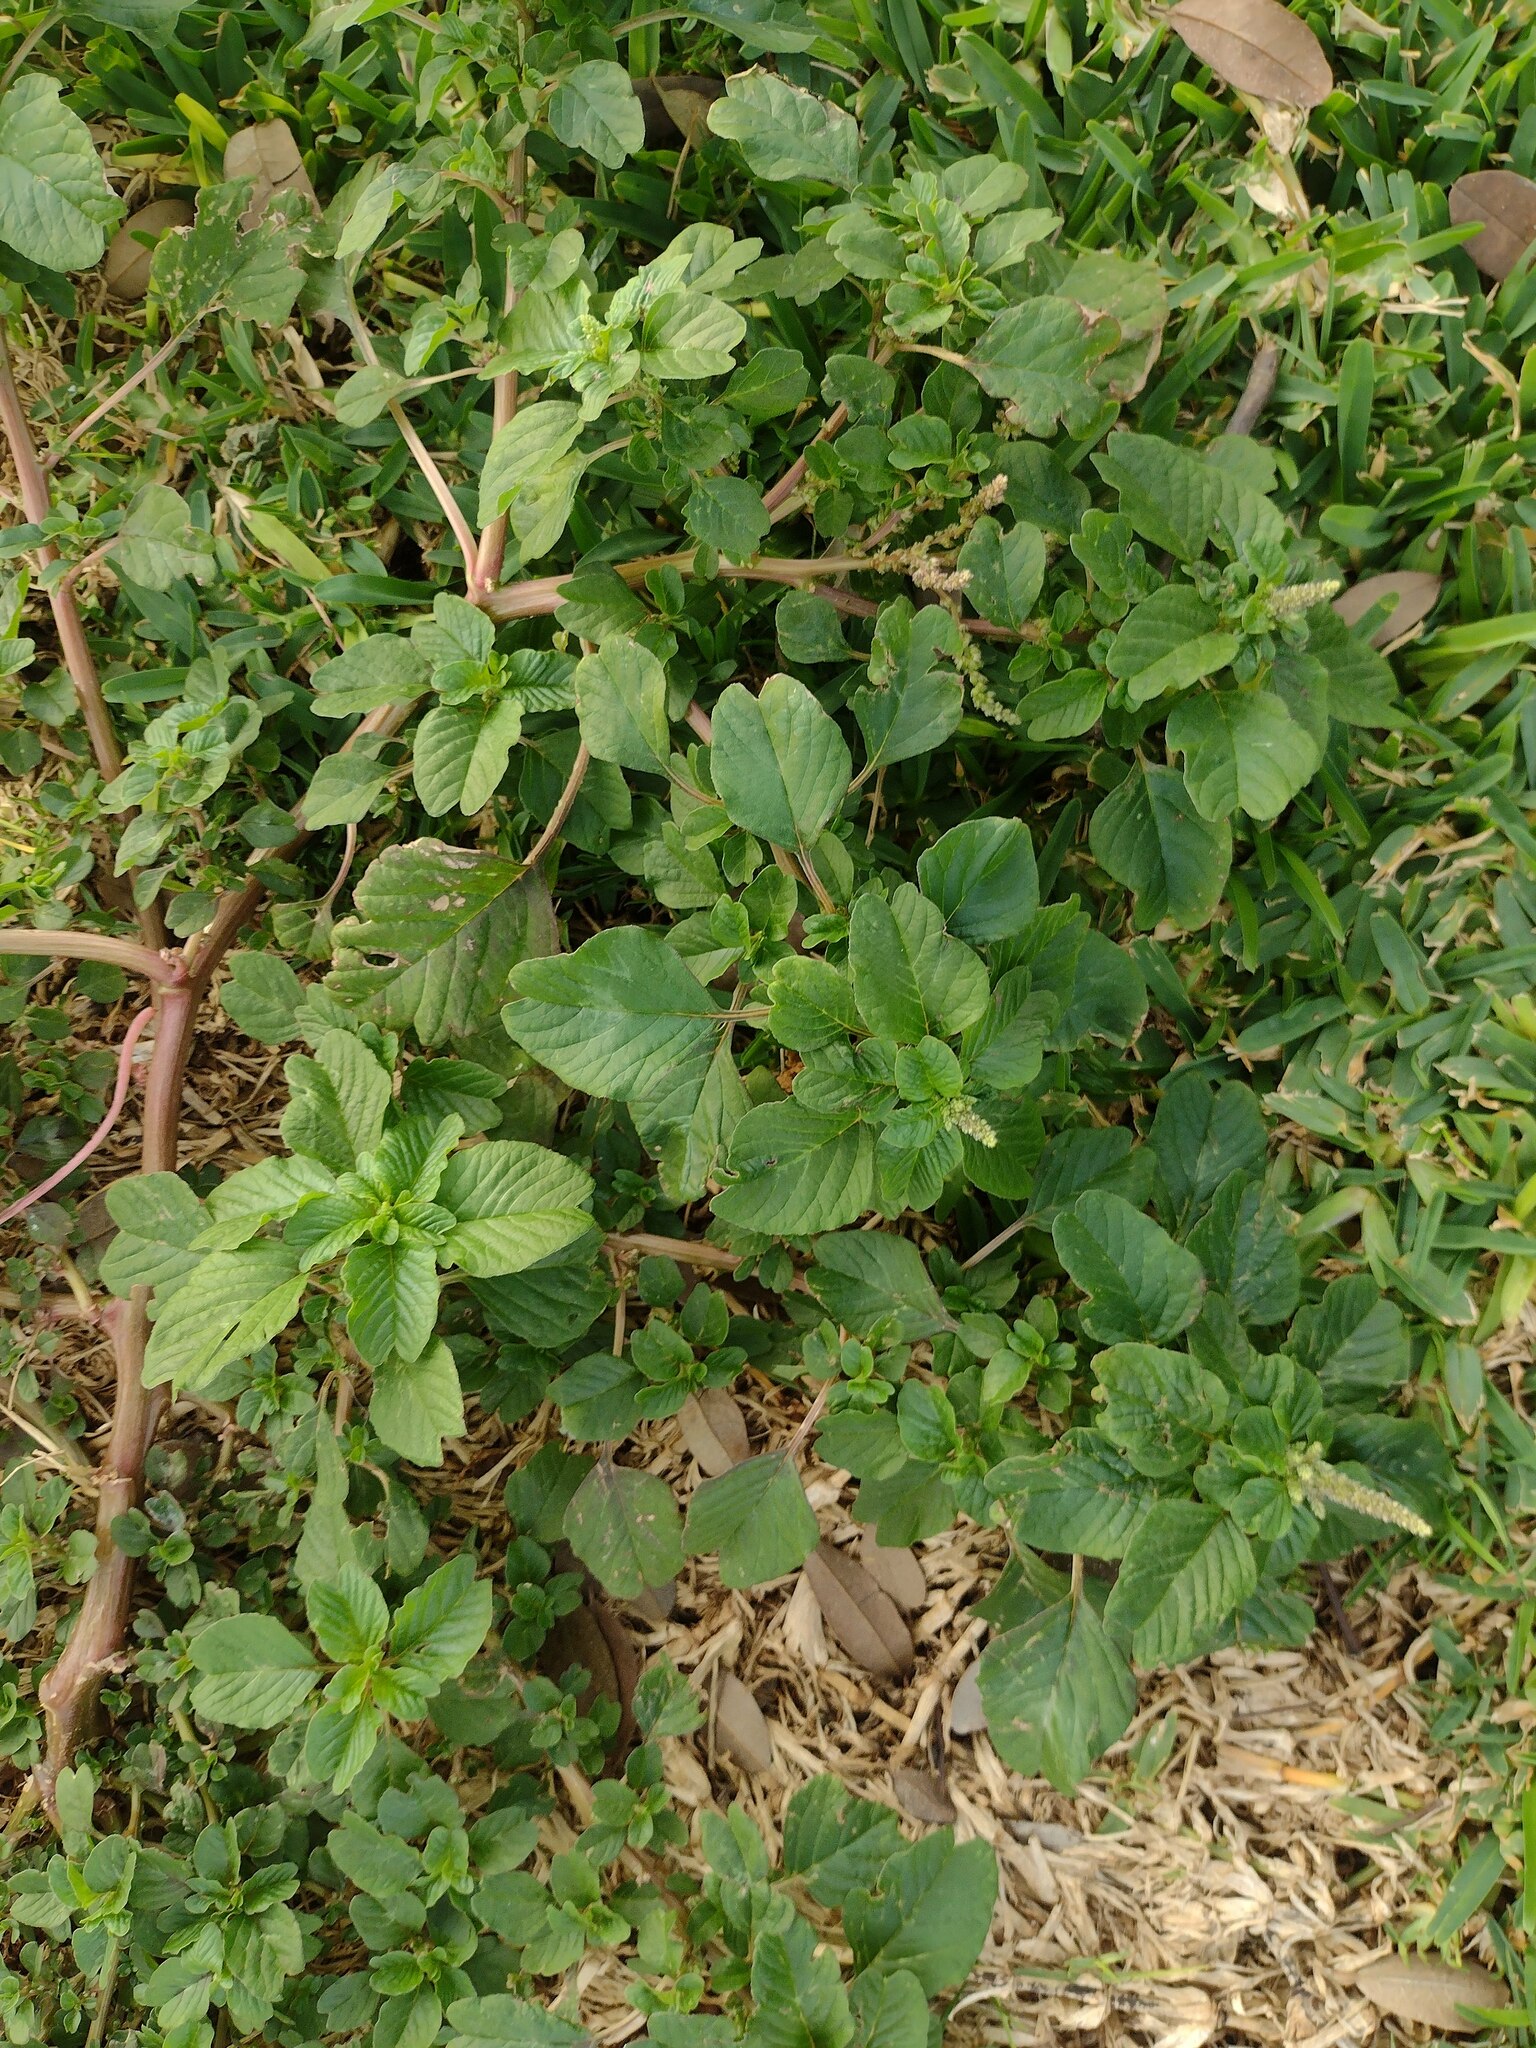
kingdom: Plantae
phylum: Tracheophyta
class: Magnoliopsida
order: Caryophyllales
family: Amaranthaceae
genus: Amaranthus
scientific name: Amaranthus blitum
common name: Purple amaranth
